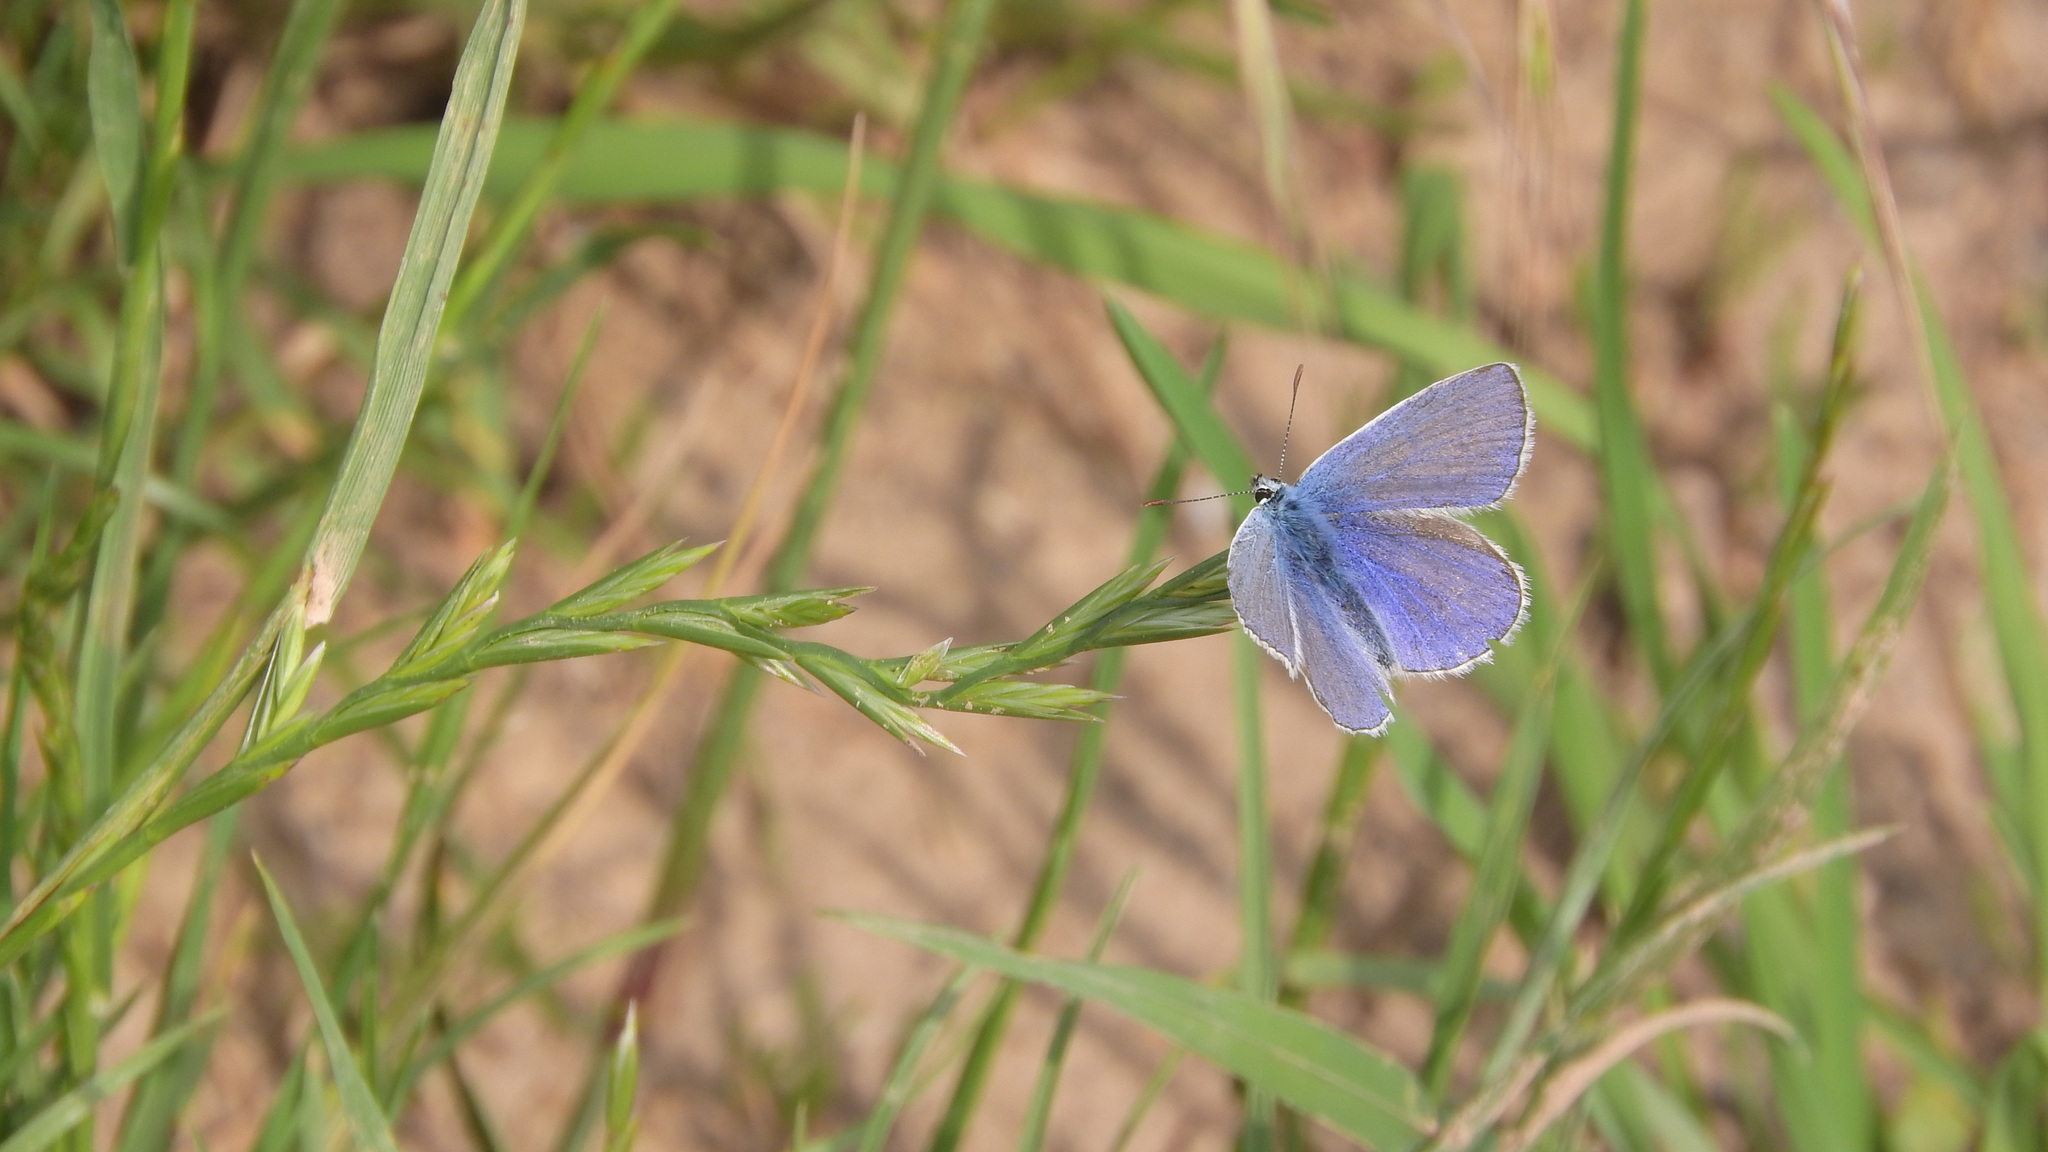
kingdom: Animalia
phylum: Arthropoda
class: Insecta
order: Lepidoptera
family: Lycaenidae
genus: Polyommatus
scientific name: Polyommatus icarus
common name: Common blue
